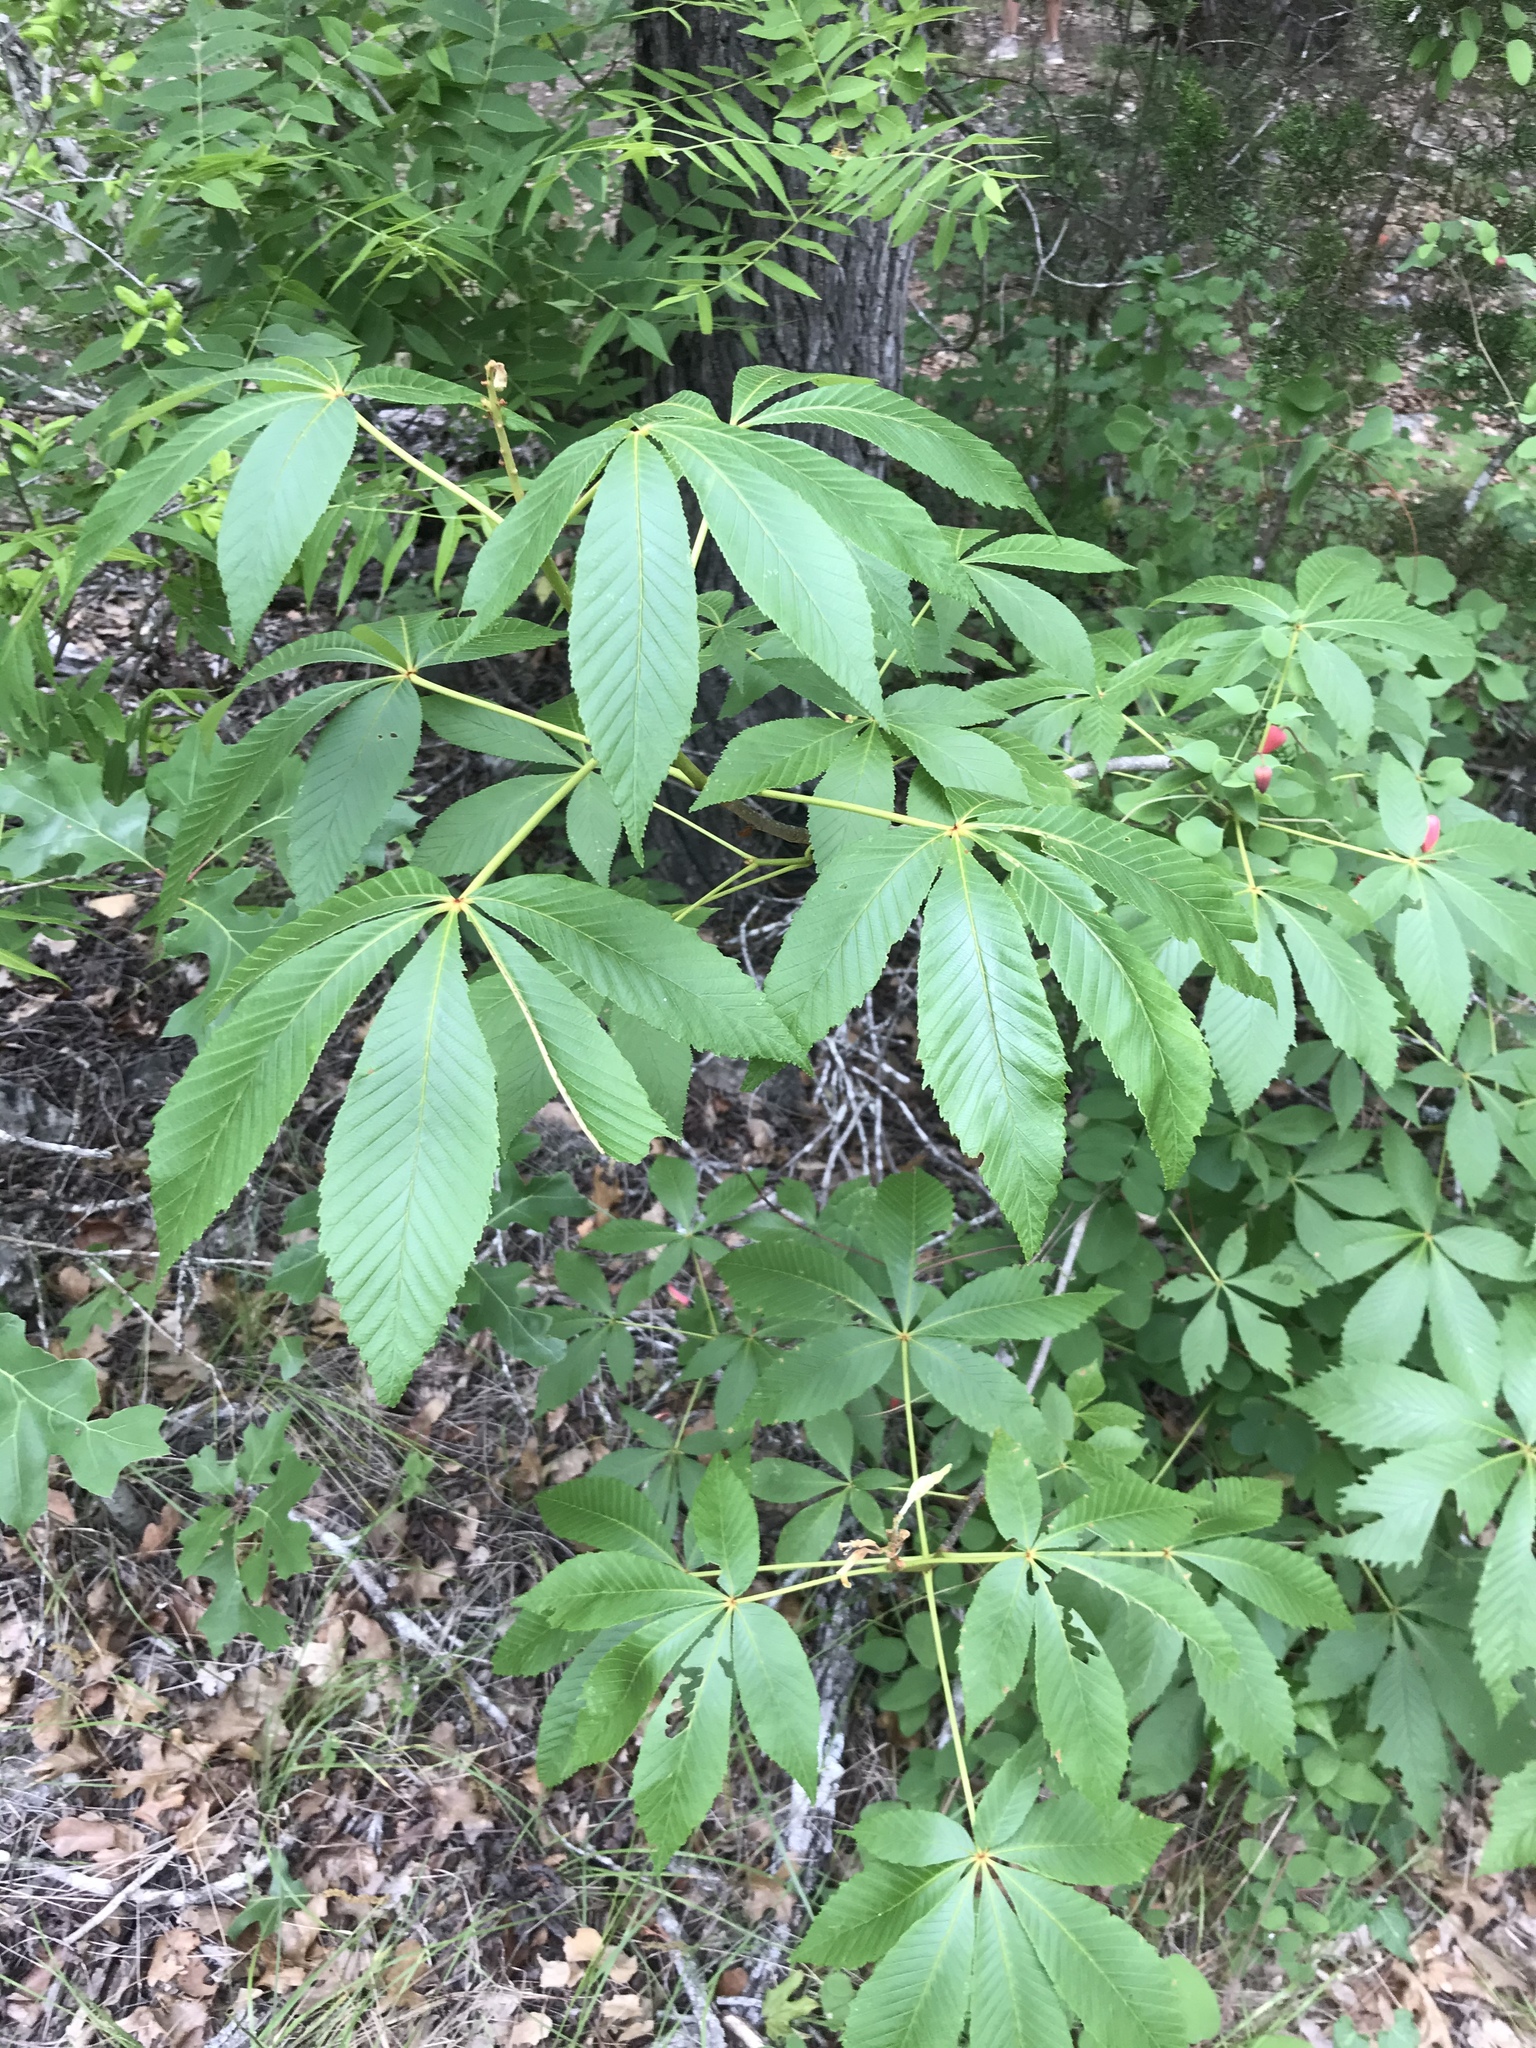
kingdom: Plantae
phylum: Tracheophyta
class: Magnoliopsida
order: Sapindales
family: Sapindaceae
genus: Aesculus
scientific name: Aesculus pavia
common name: Red buckeye
